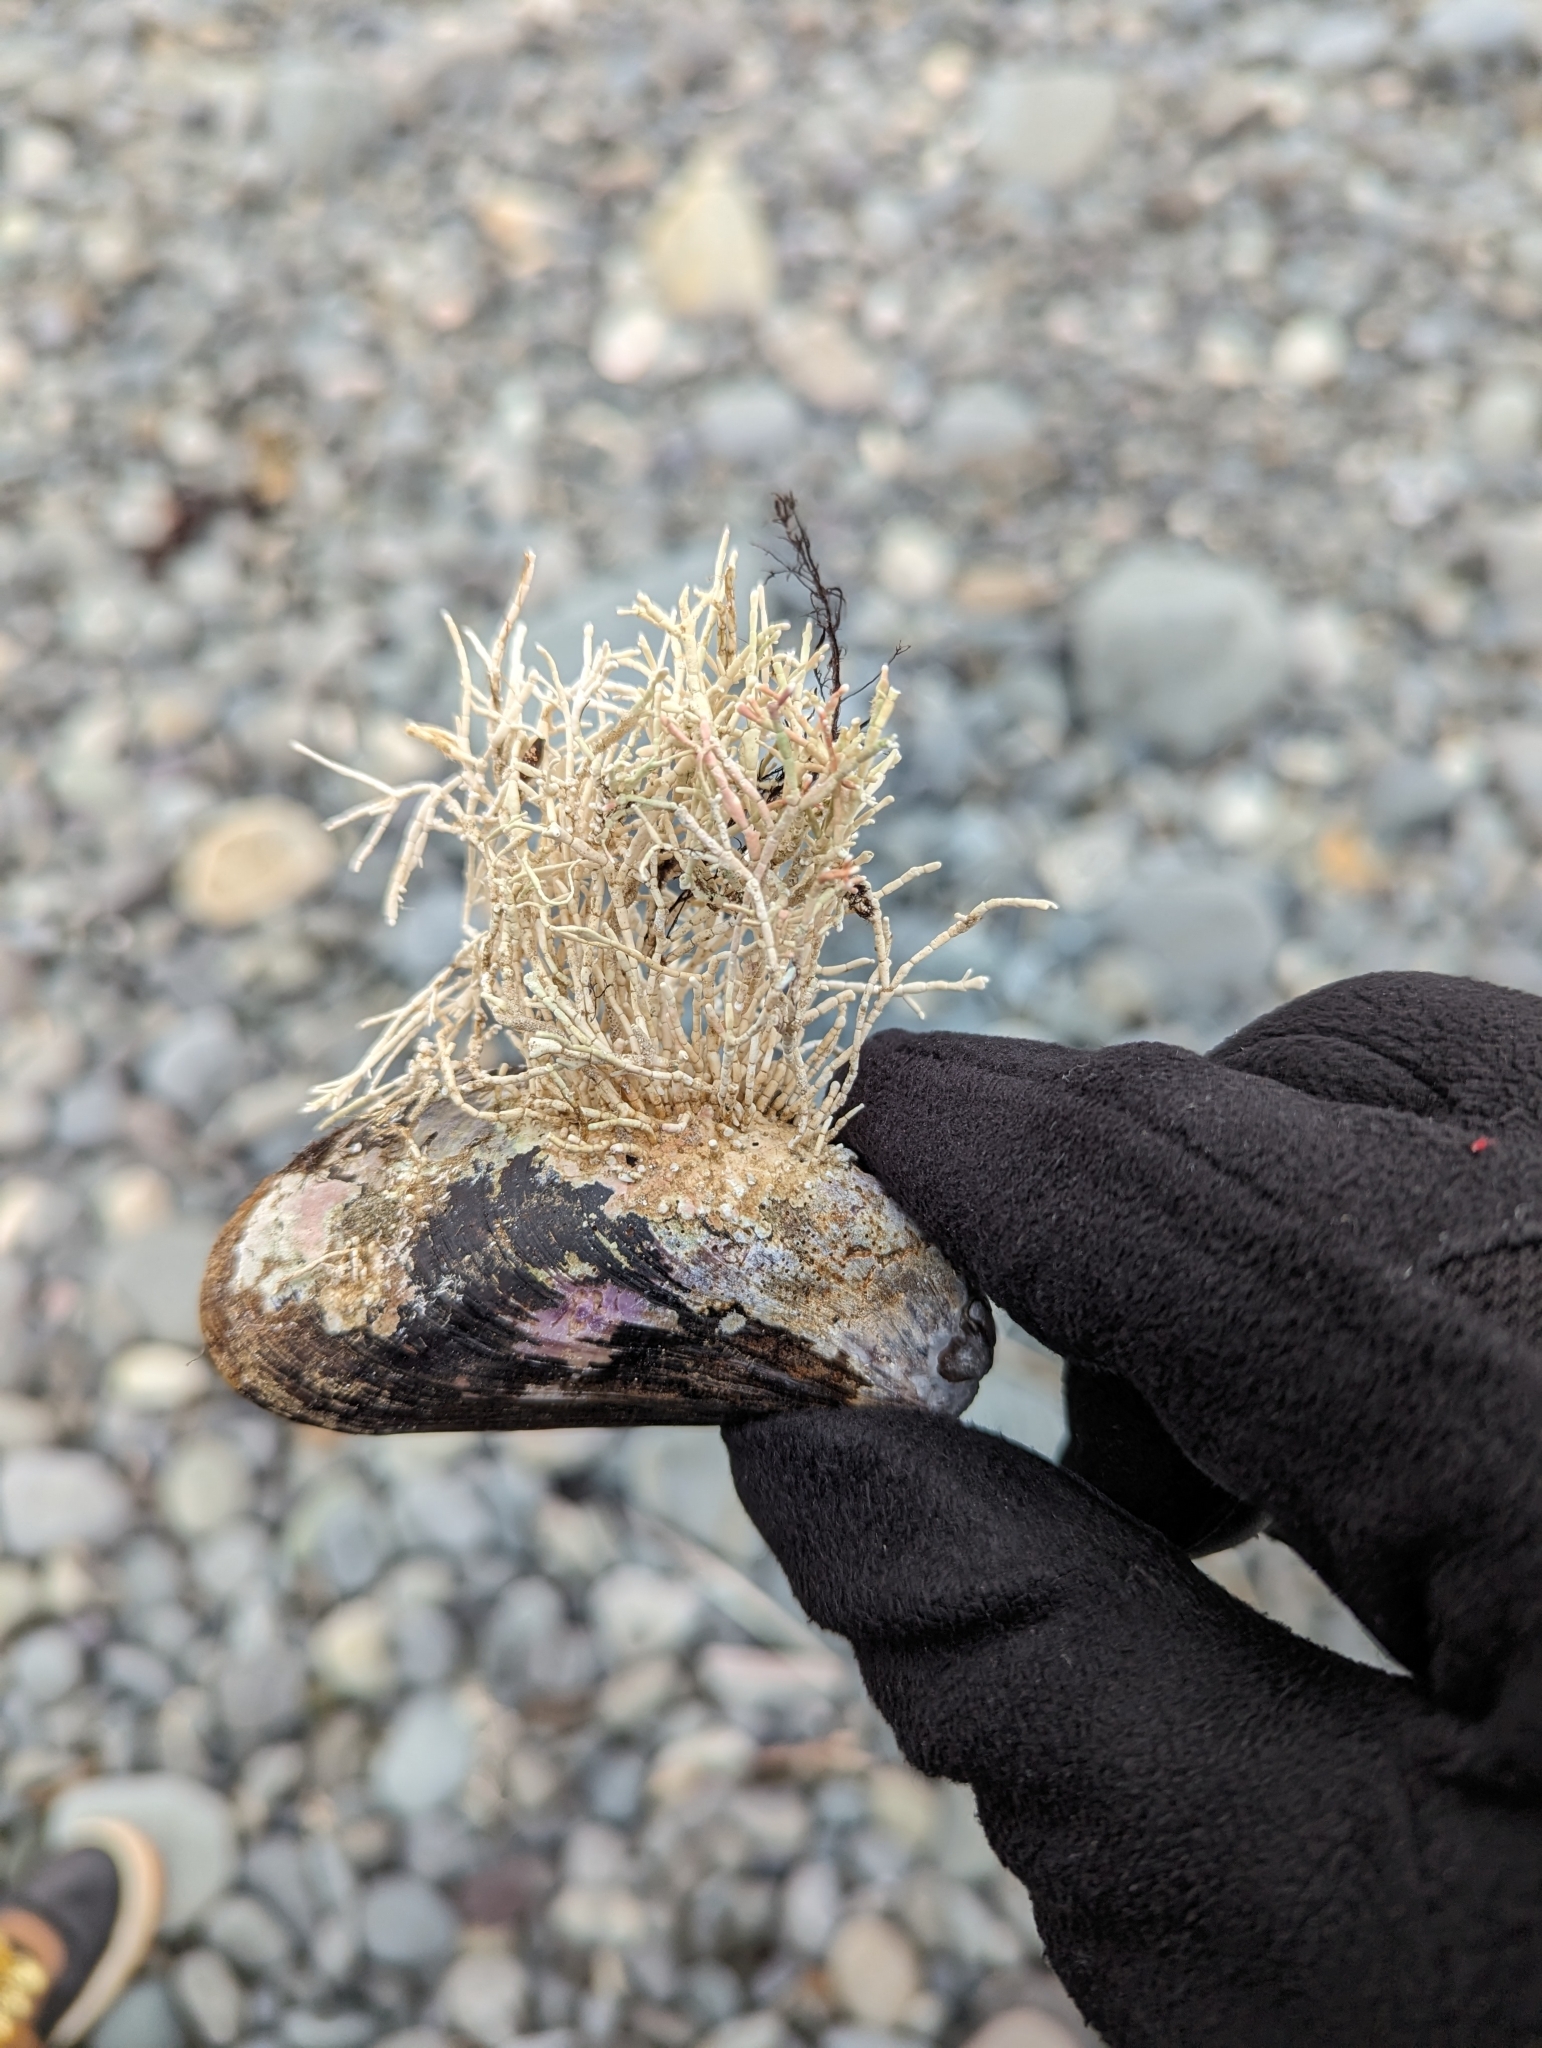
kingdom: Animalia
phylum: Mollusca
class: Bivalvia
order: Mytilida
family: Mytilidae
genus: Modiolus
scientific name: Modiolus modiolus
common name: Horse-mussel
